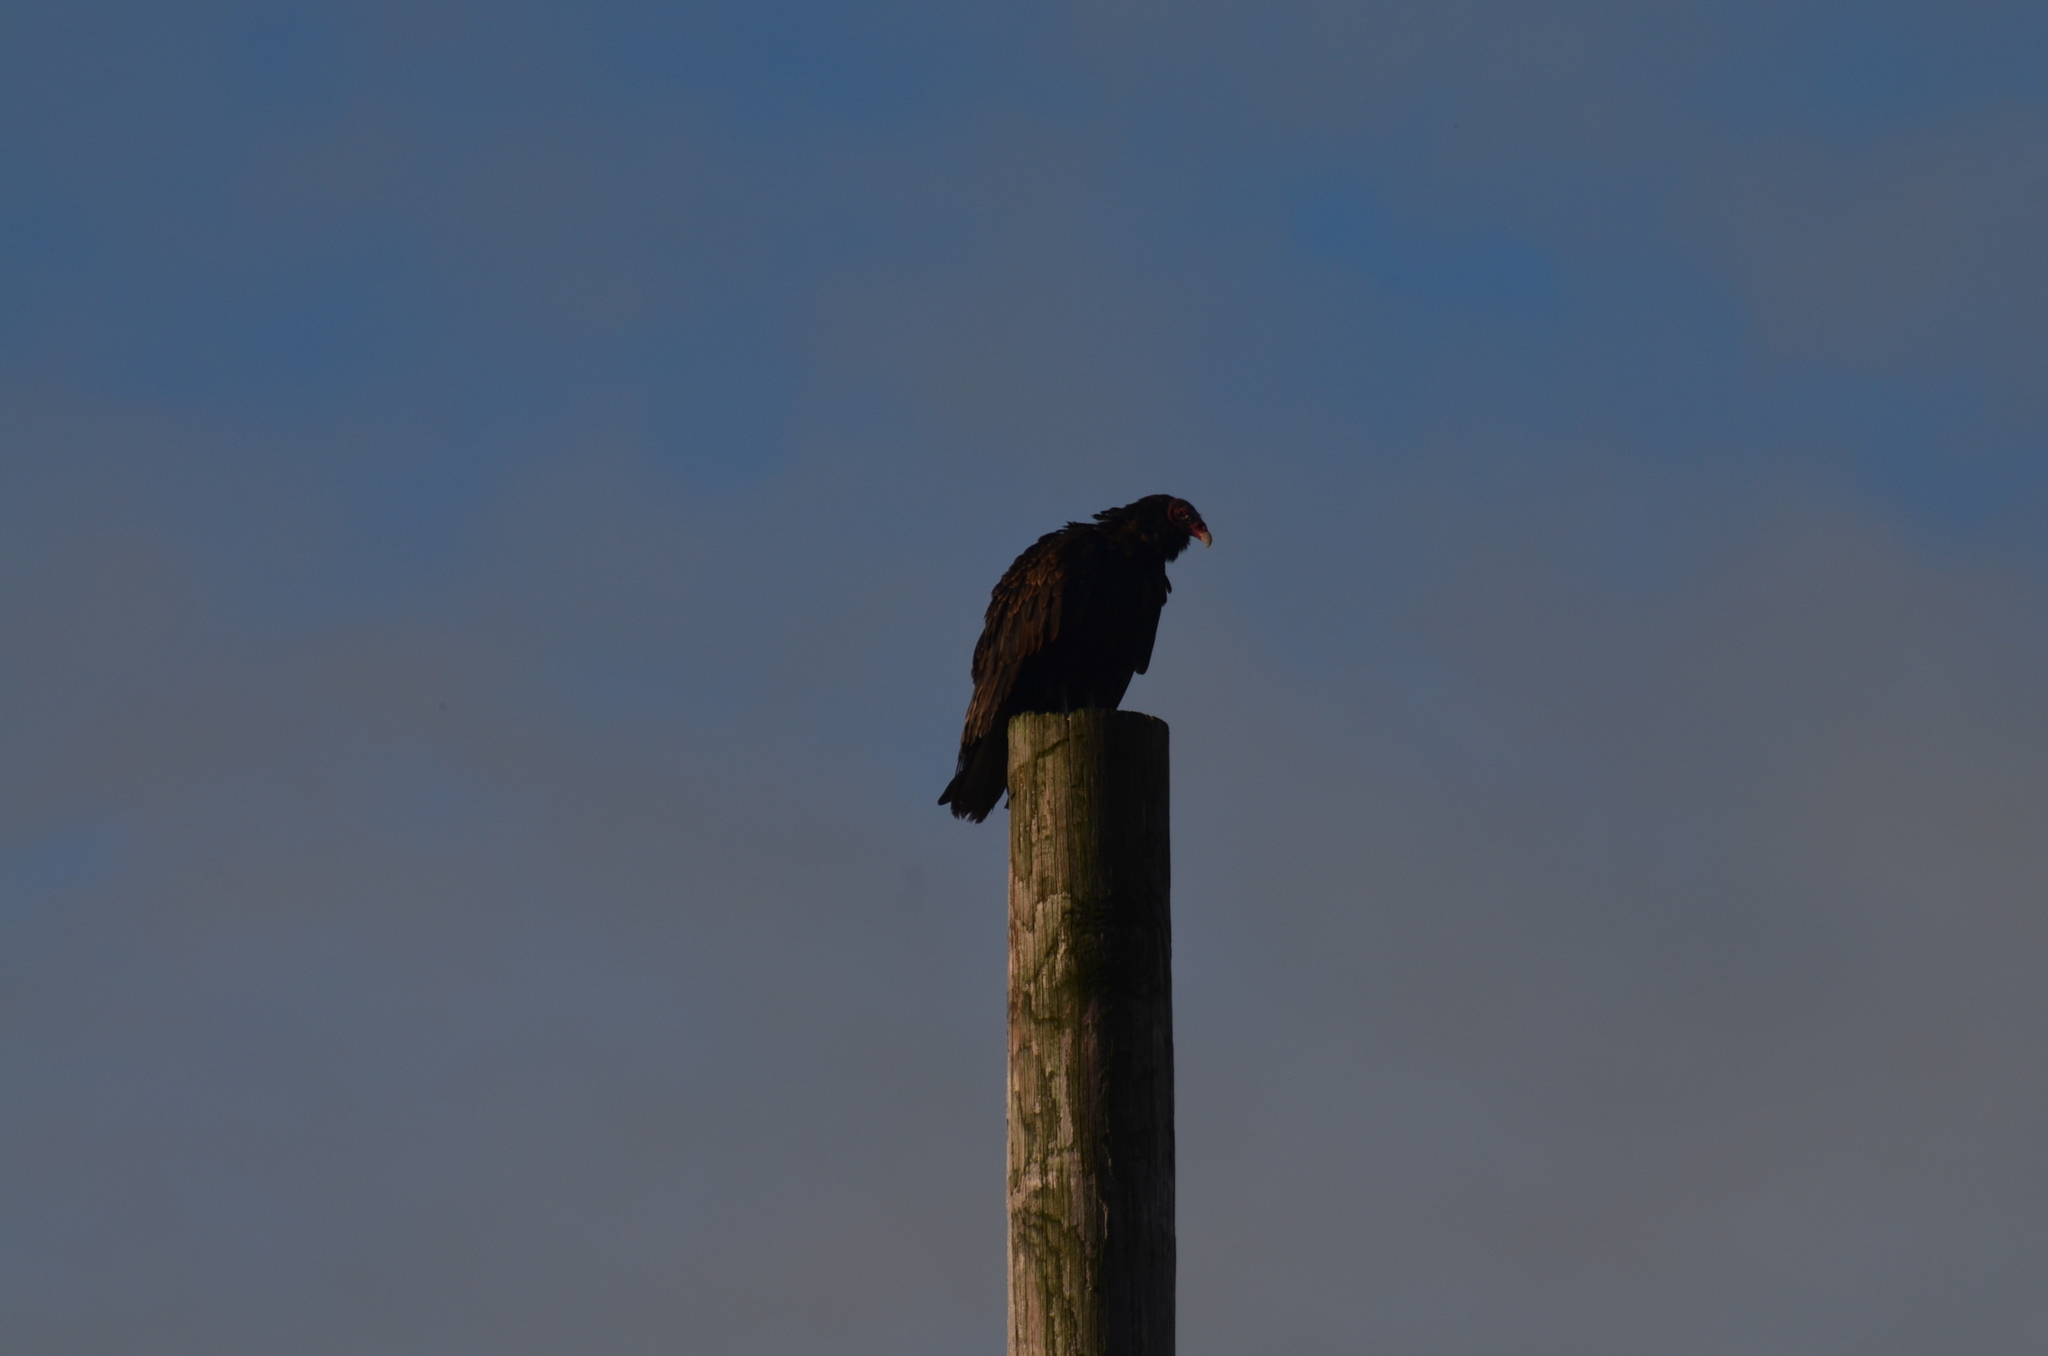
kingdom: Animalia
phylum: Chordata
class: Aves
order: Accipitriformes
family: Cathartidae
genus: Cathartes
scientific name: Cathartes aura
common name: Turkey vulture
